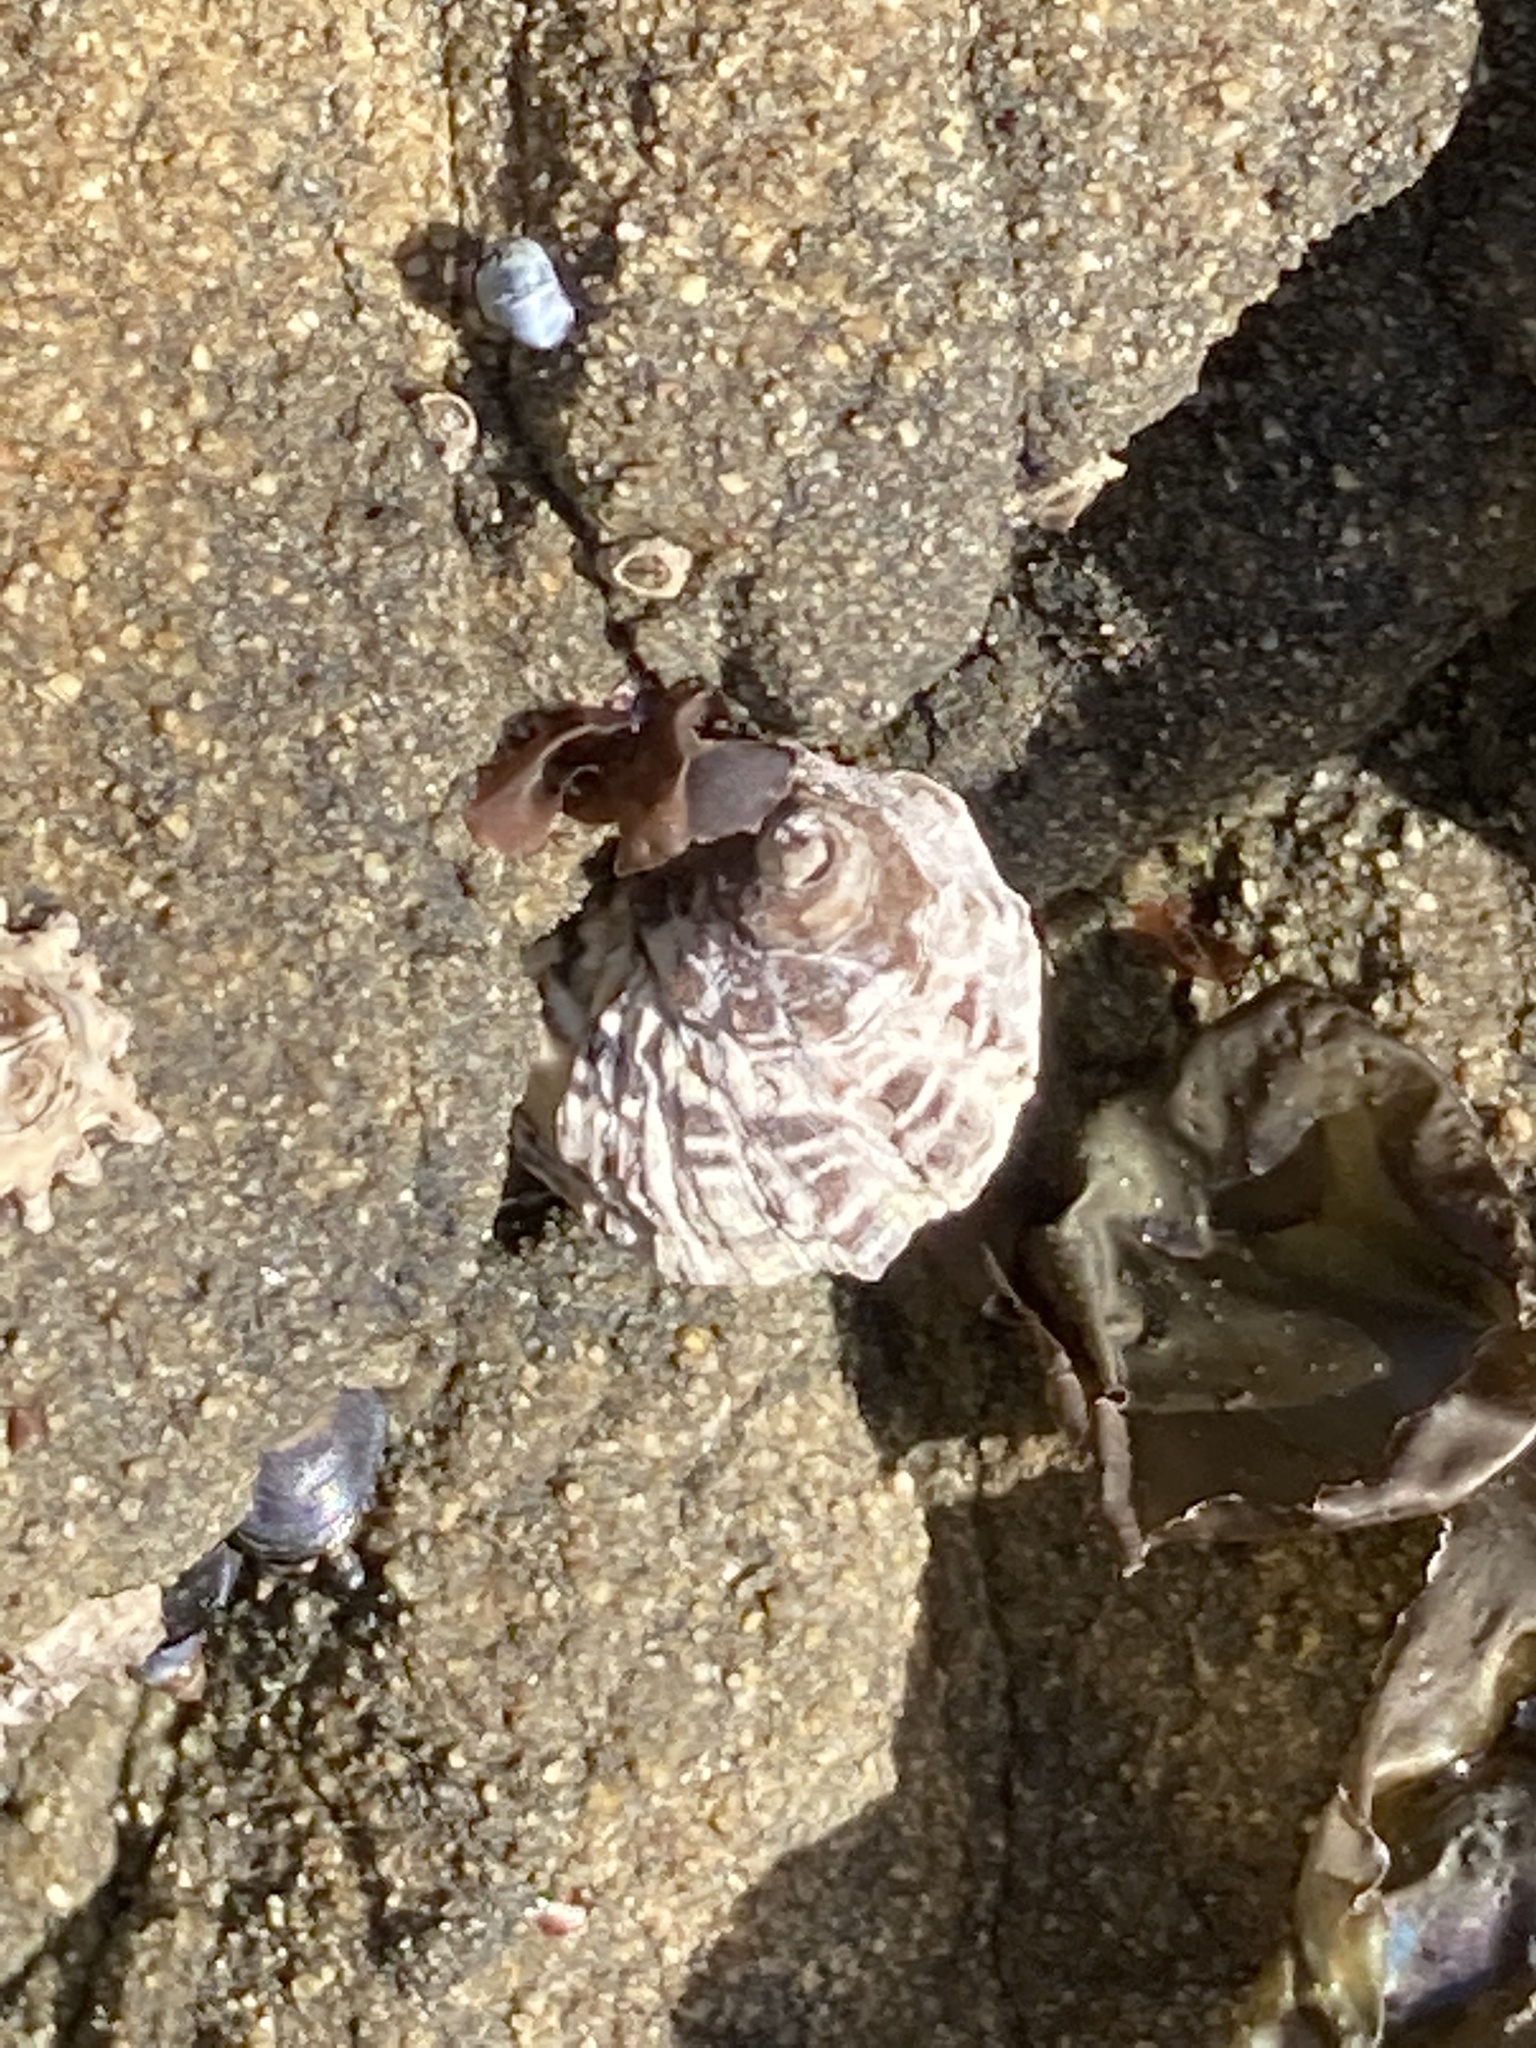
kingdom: Animalia
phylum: Mollusca
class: Gastropoda
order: Neogastropoda
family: Muricidae
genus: Haustrum
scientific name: Haustrum scobina
